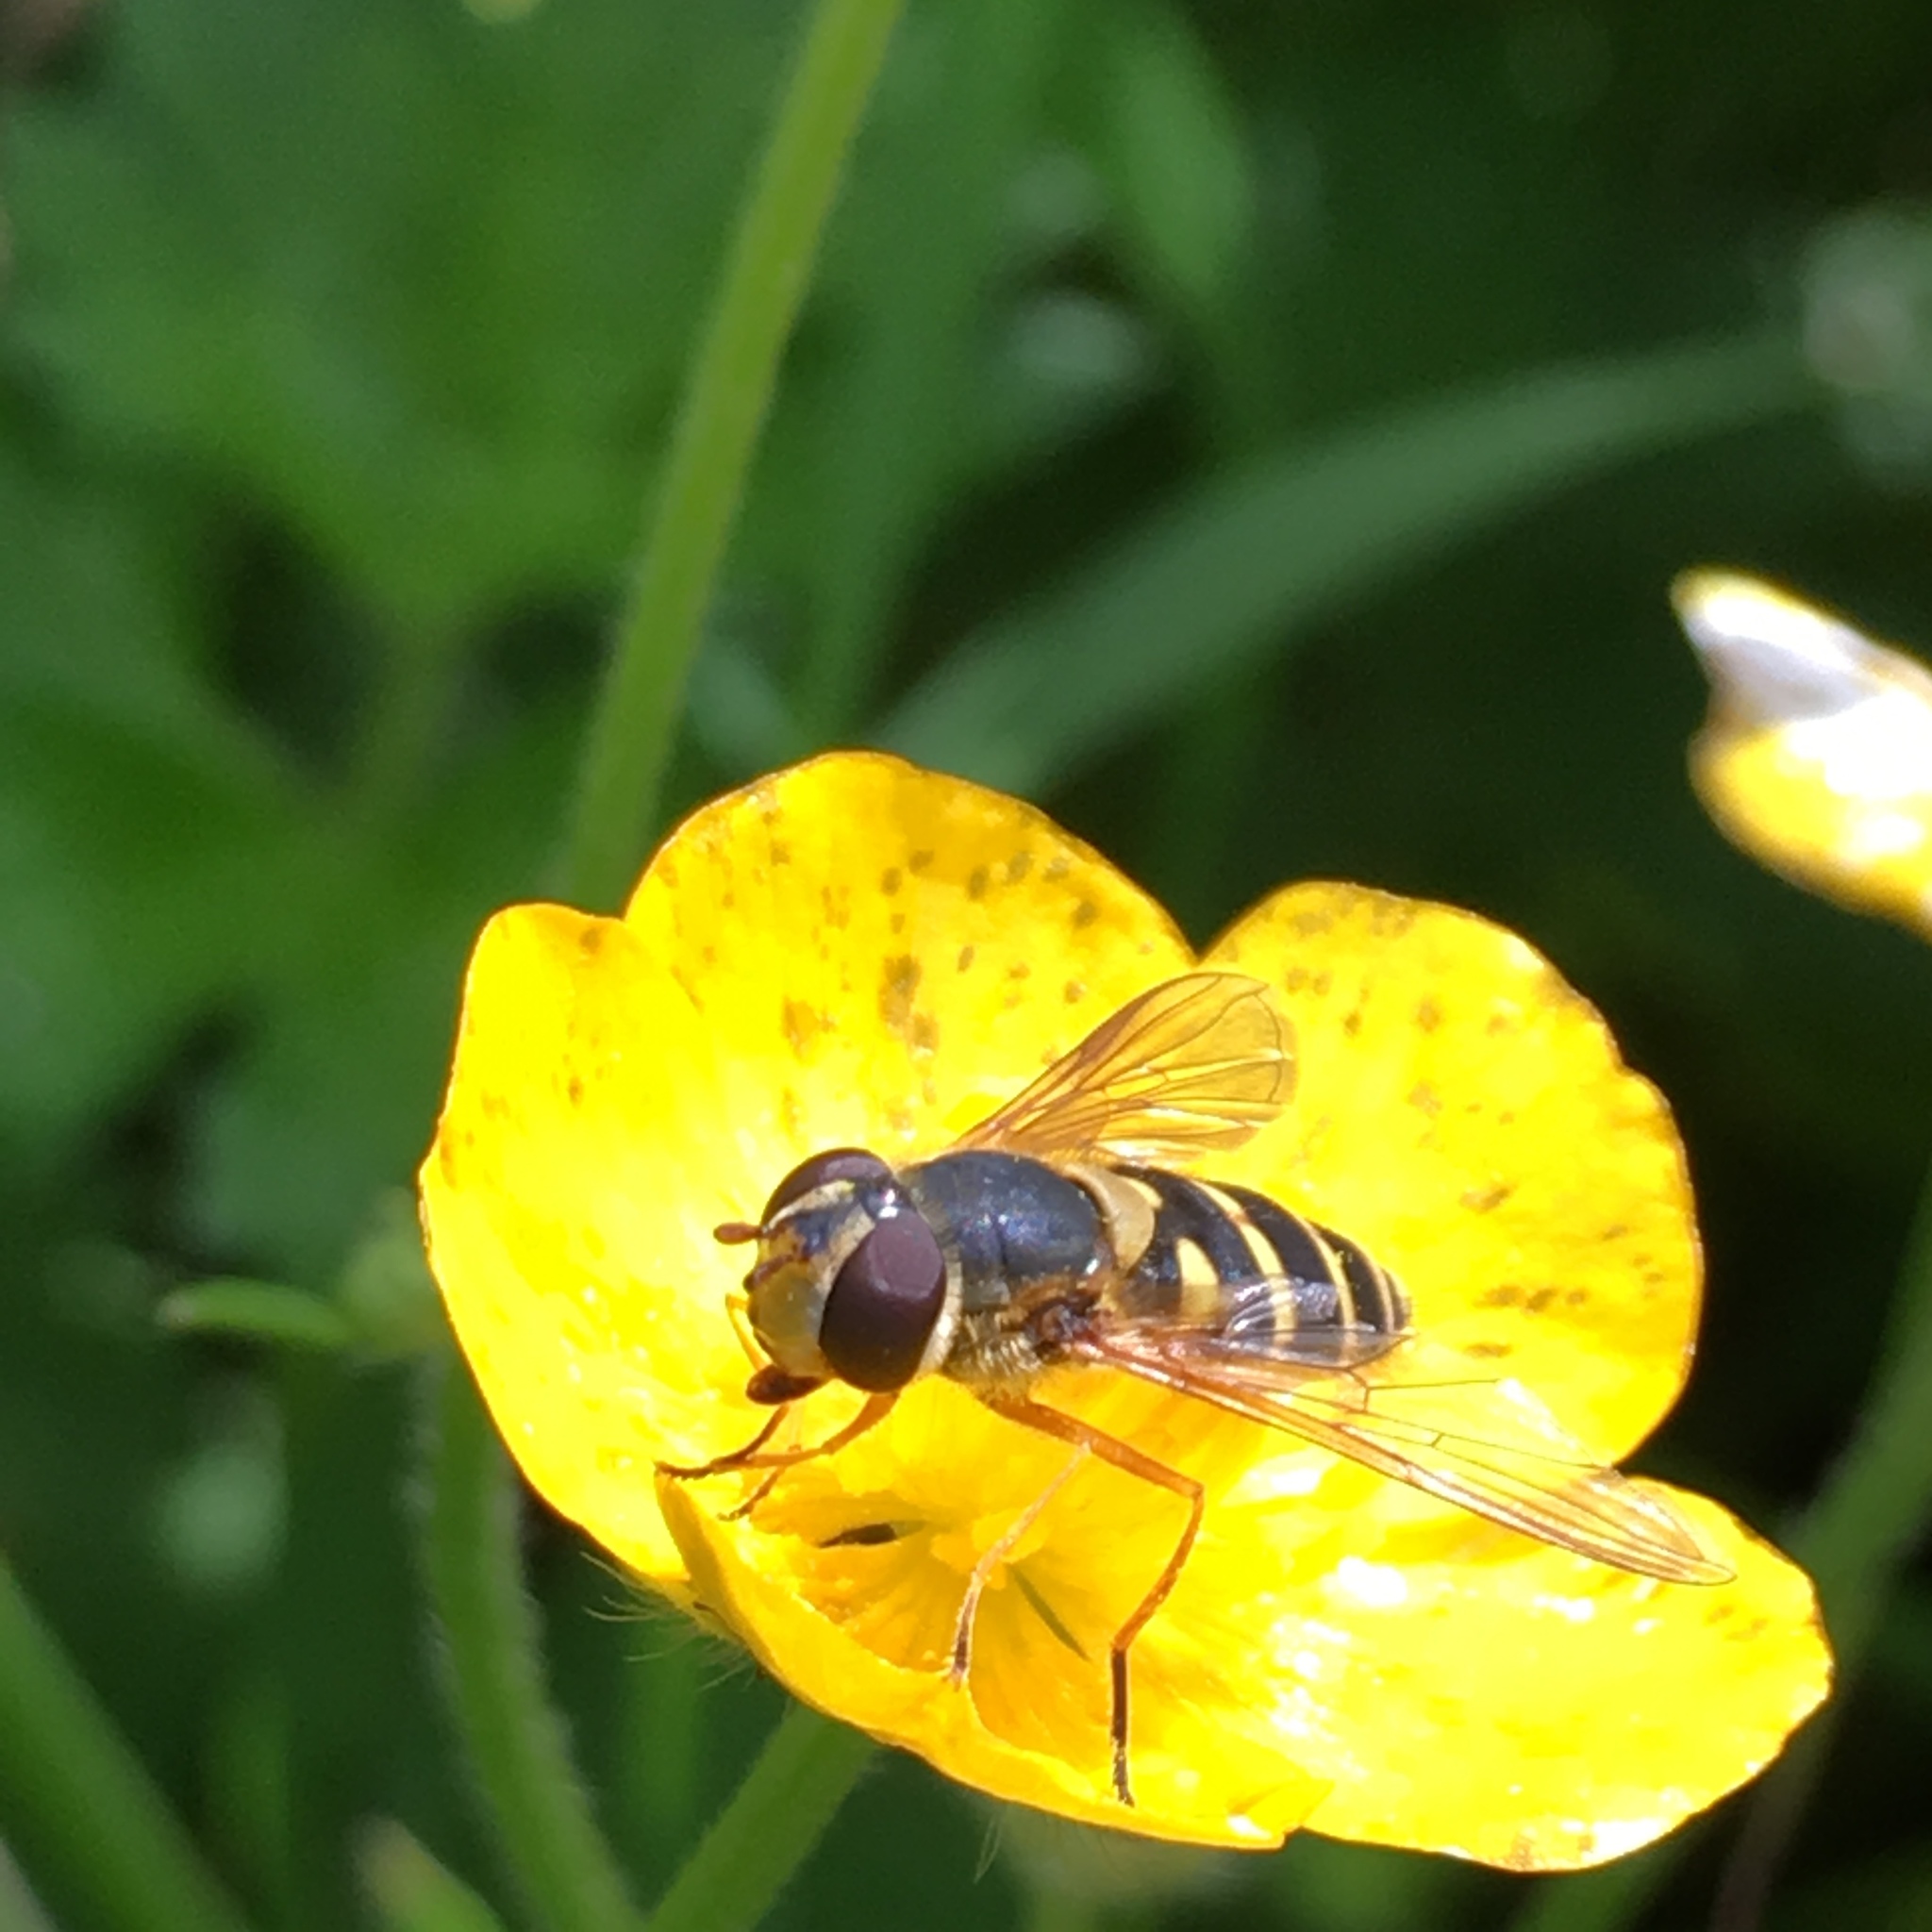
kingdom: Animalia
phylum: Arthropoda
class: Insecta
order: Diptera
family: Syrphidae
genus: Syrphus
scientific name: Syrphus ribesii
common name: Common flower fly
